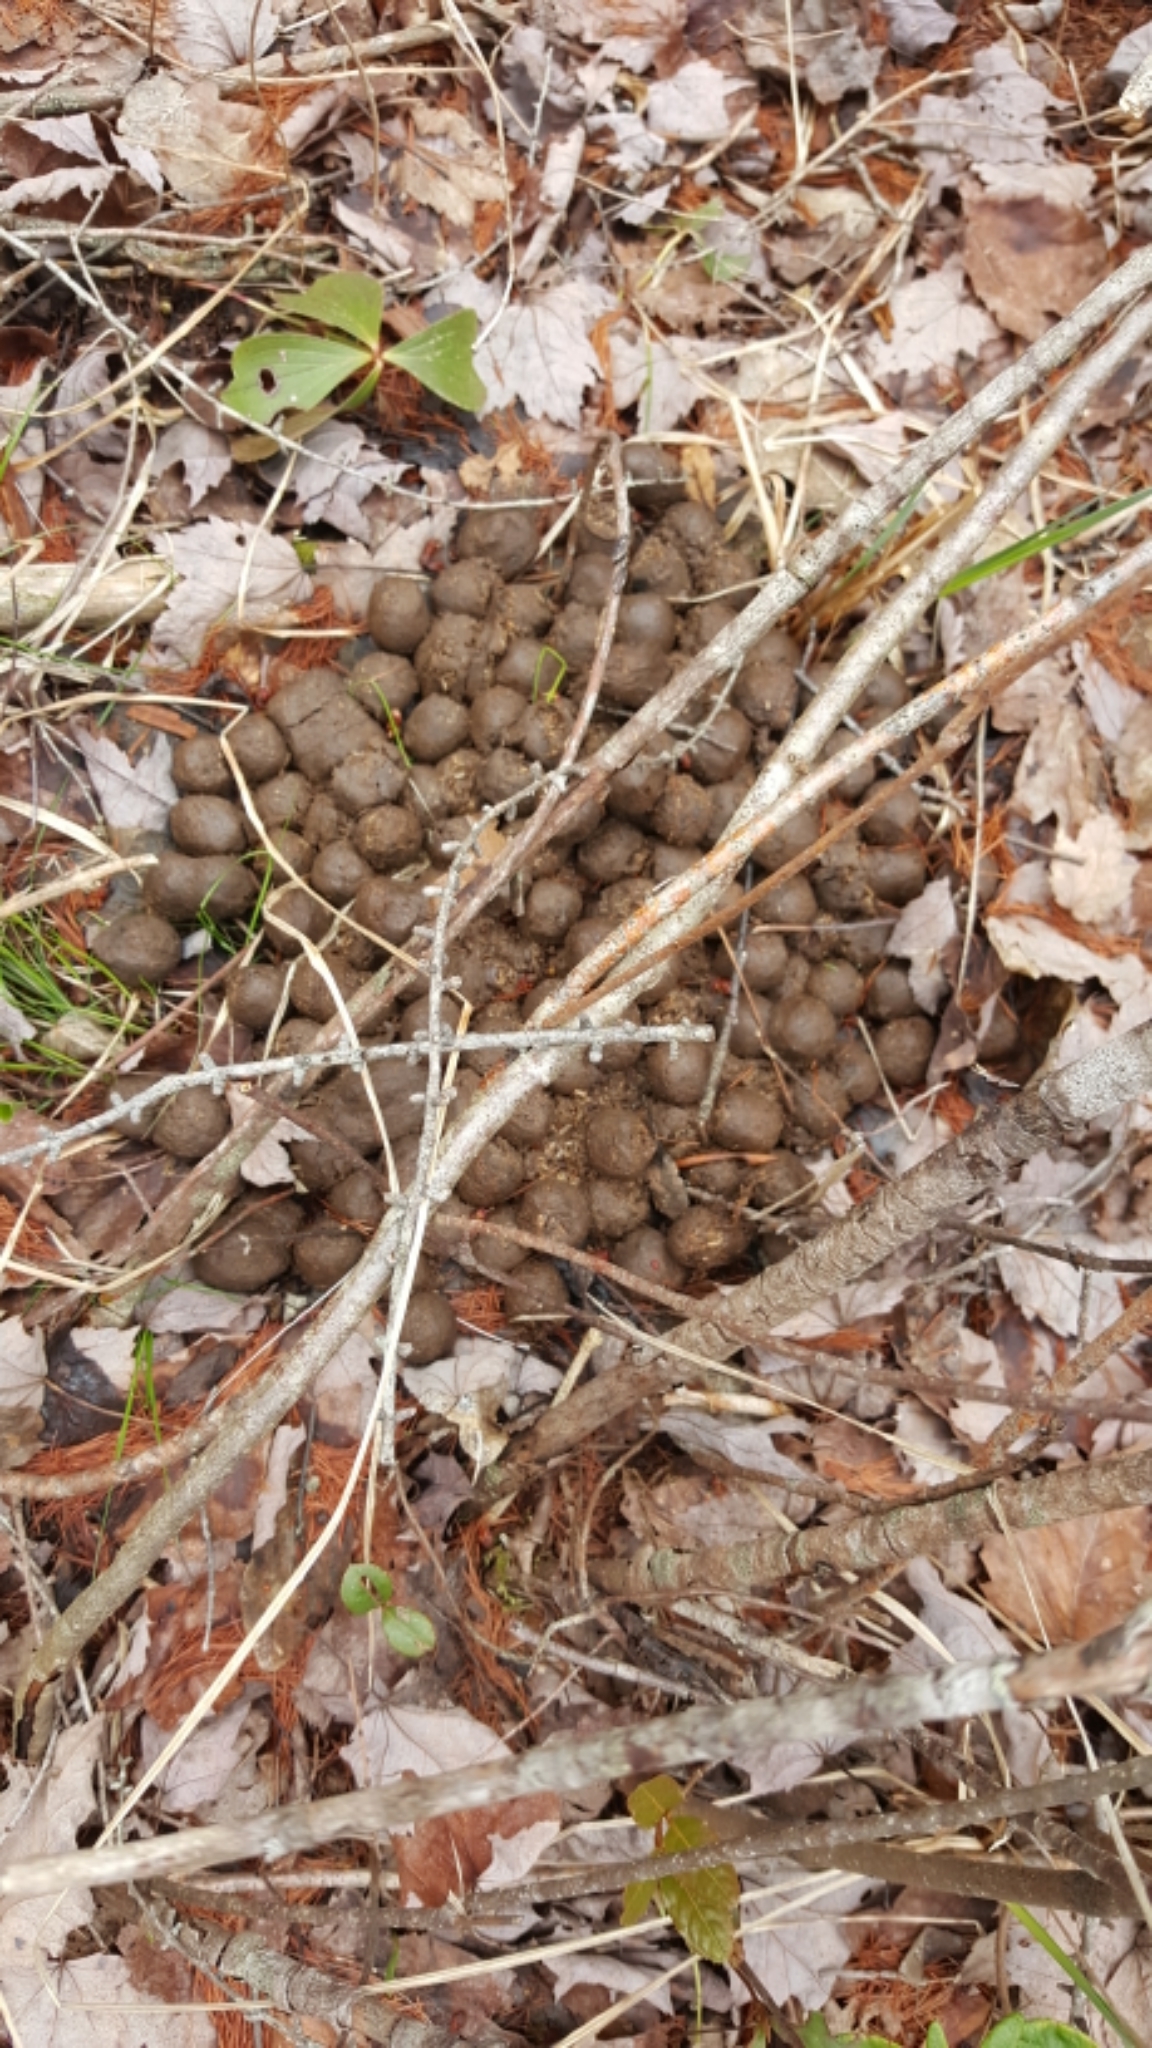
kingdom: Animalia
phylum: Chordata
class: Mammalia
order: Artiodactyla
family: Cervidae
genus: Alces
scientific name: Alces alces
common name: Moose
